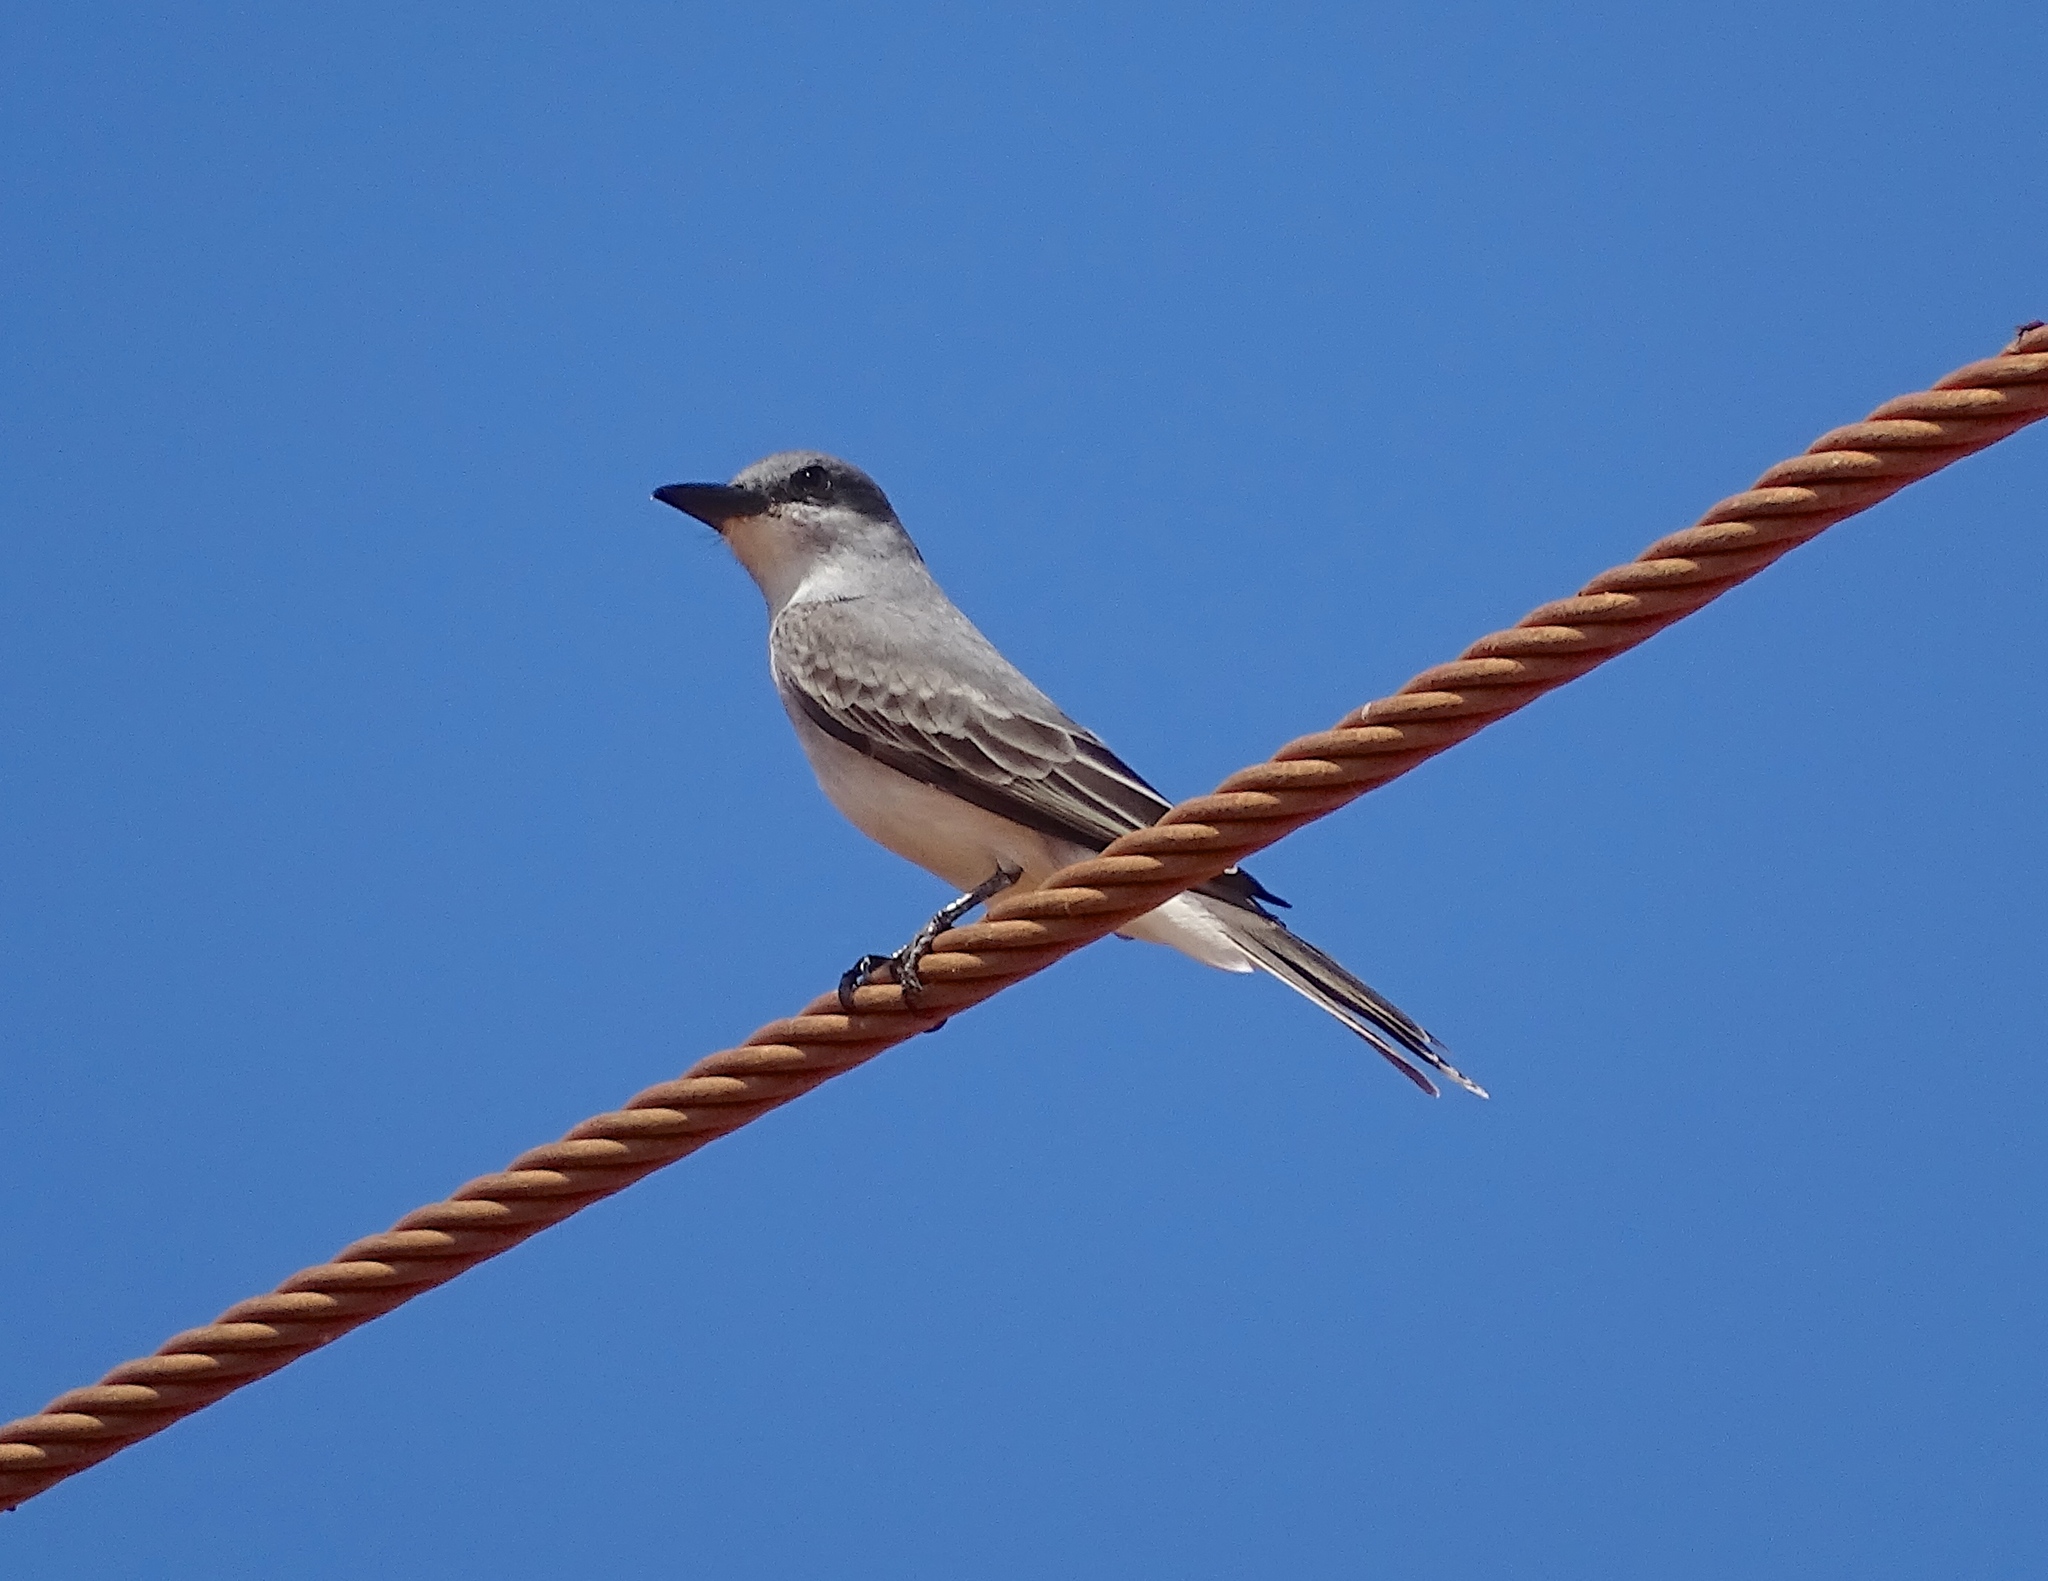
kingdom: Animalia
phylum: Chordata
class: Aves
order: Passeriformes
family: Tyrannidae
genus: Tyrannus
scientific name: Tyrannus dominicensis
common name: Gray kingbird
